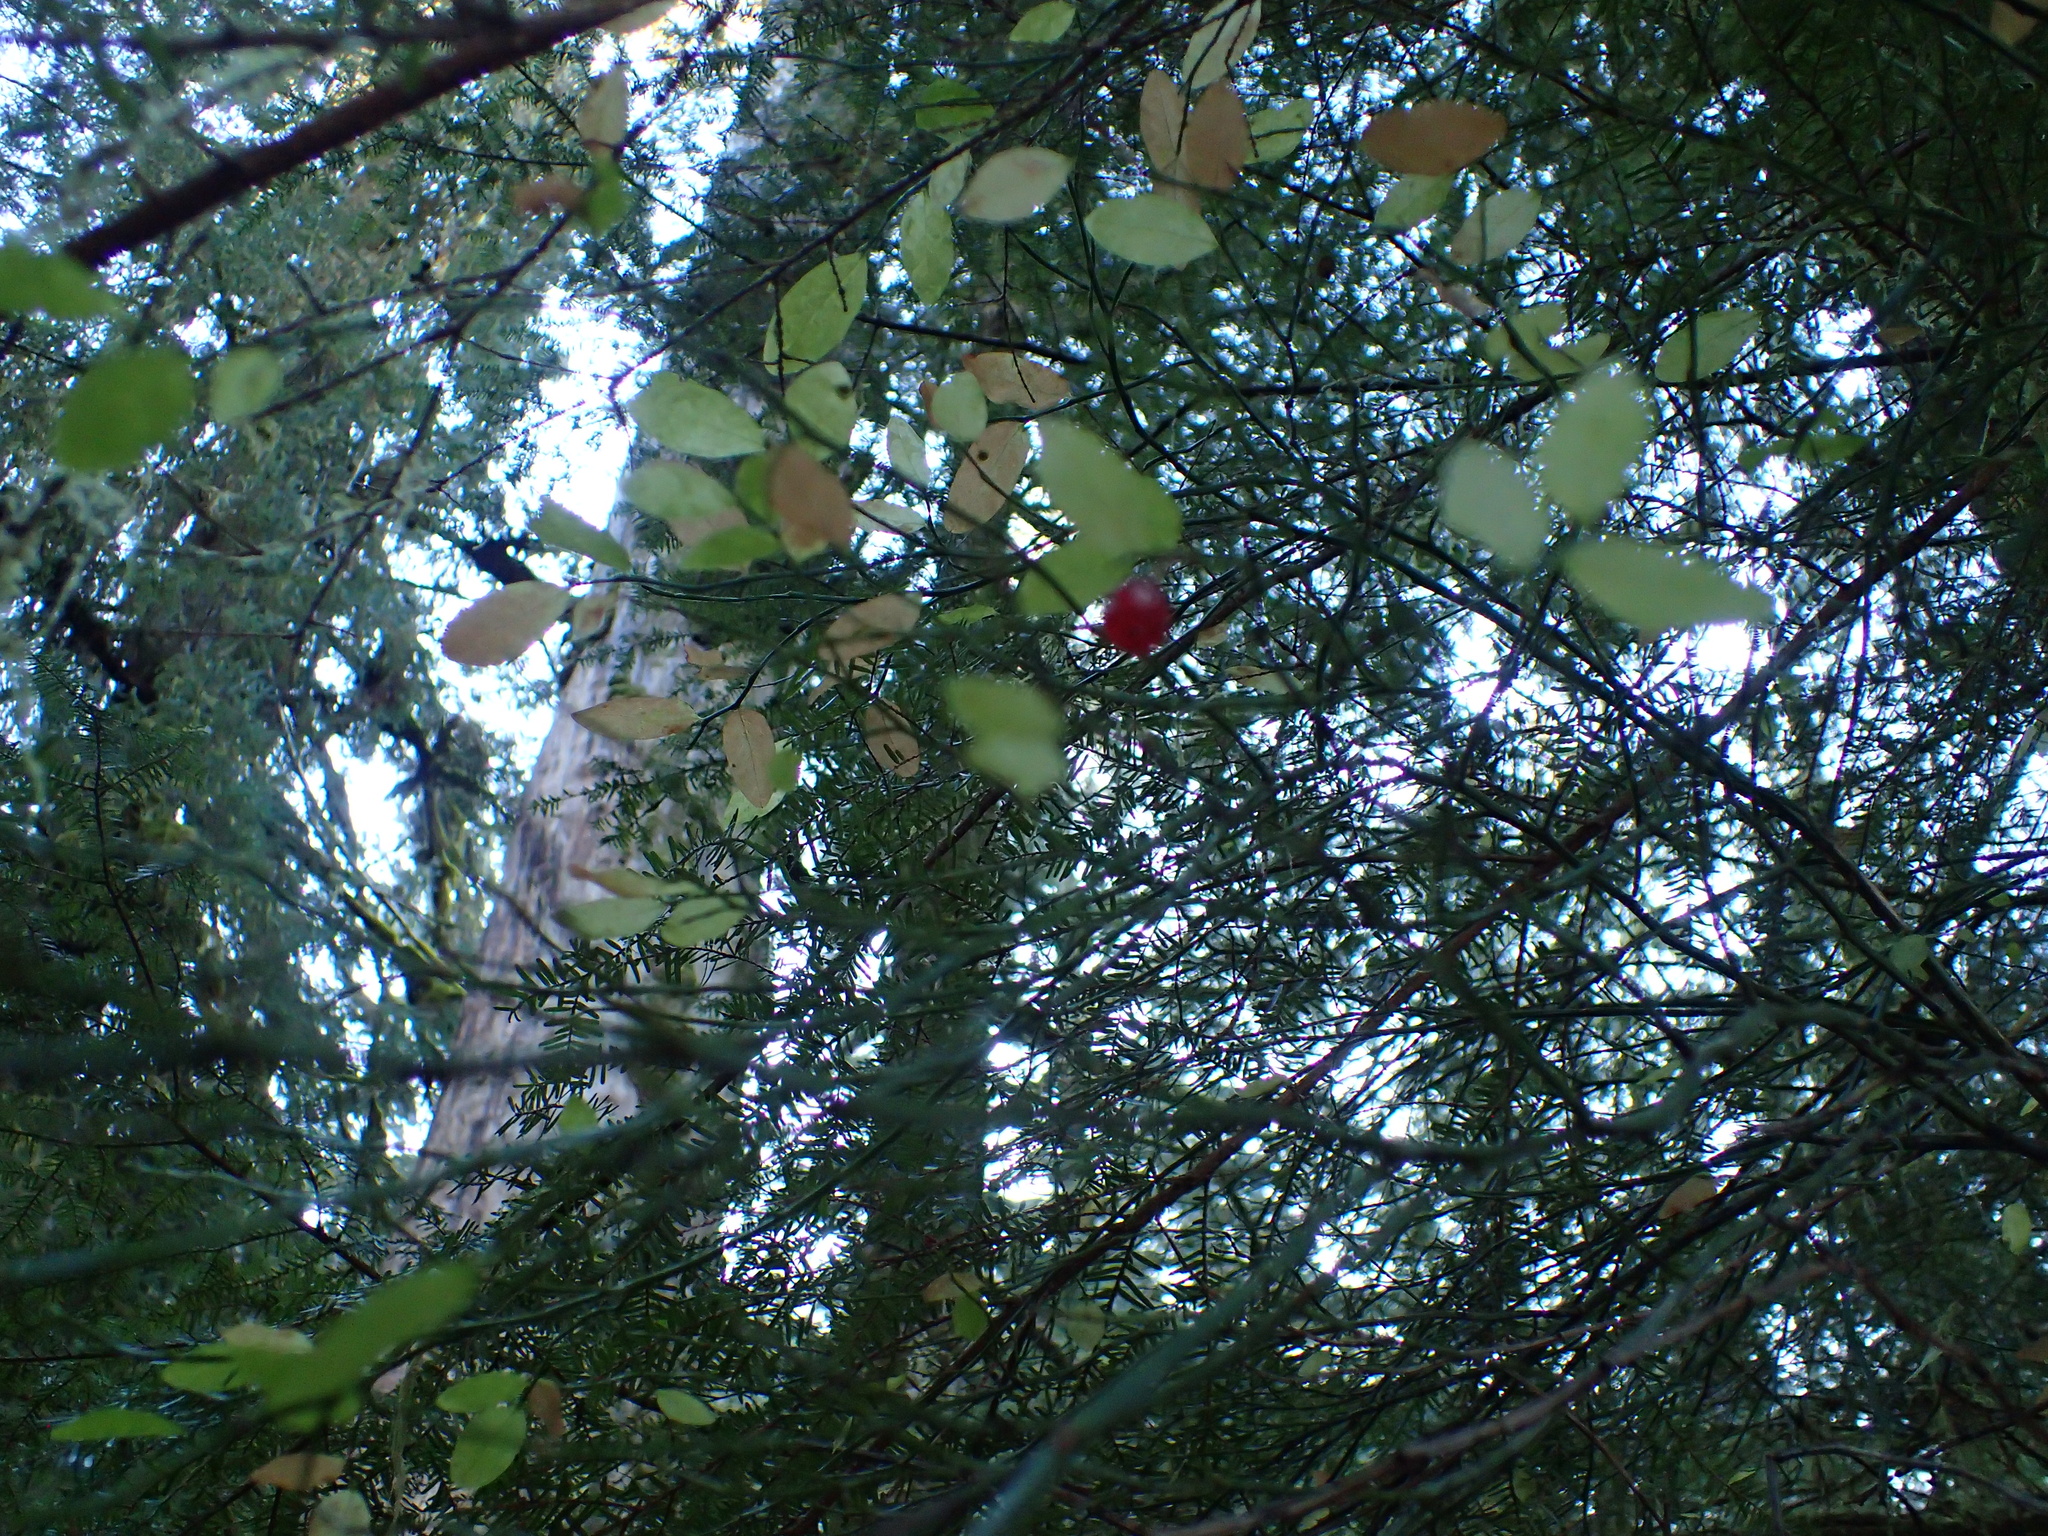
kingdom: Plantae
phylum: Tracheophyta
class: Magnoliopsida
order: Ericales
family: Ericaceae
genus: Vaccinium
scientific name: Vaccinium parvifolium
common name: Red-huckleberry
